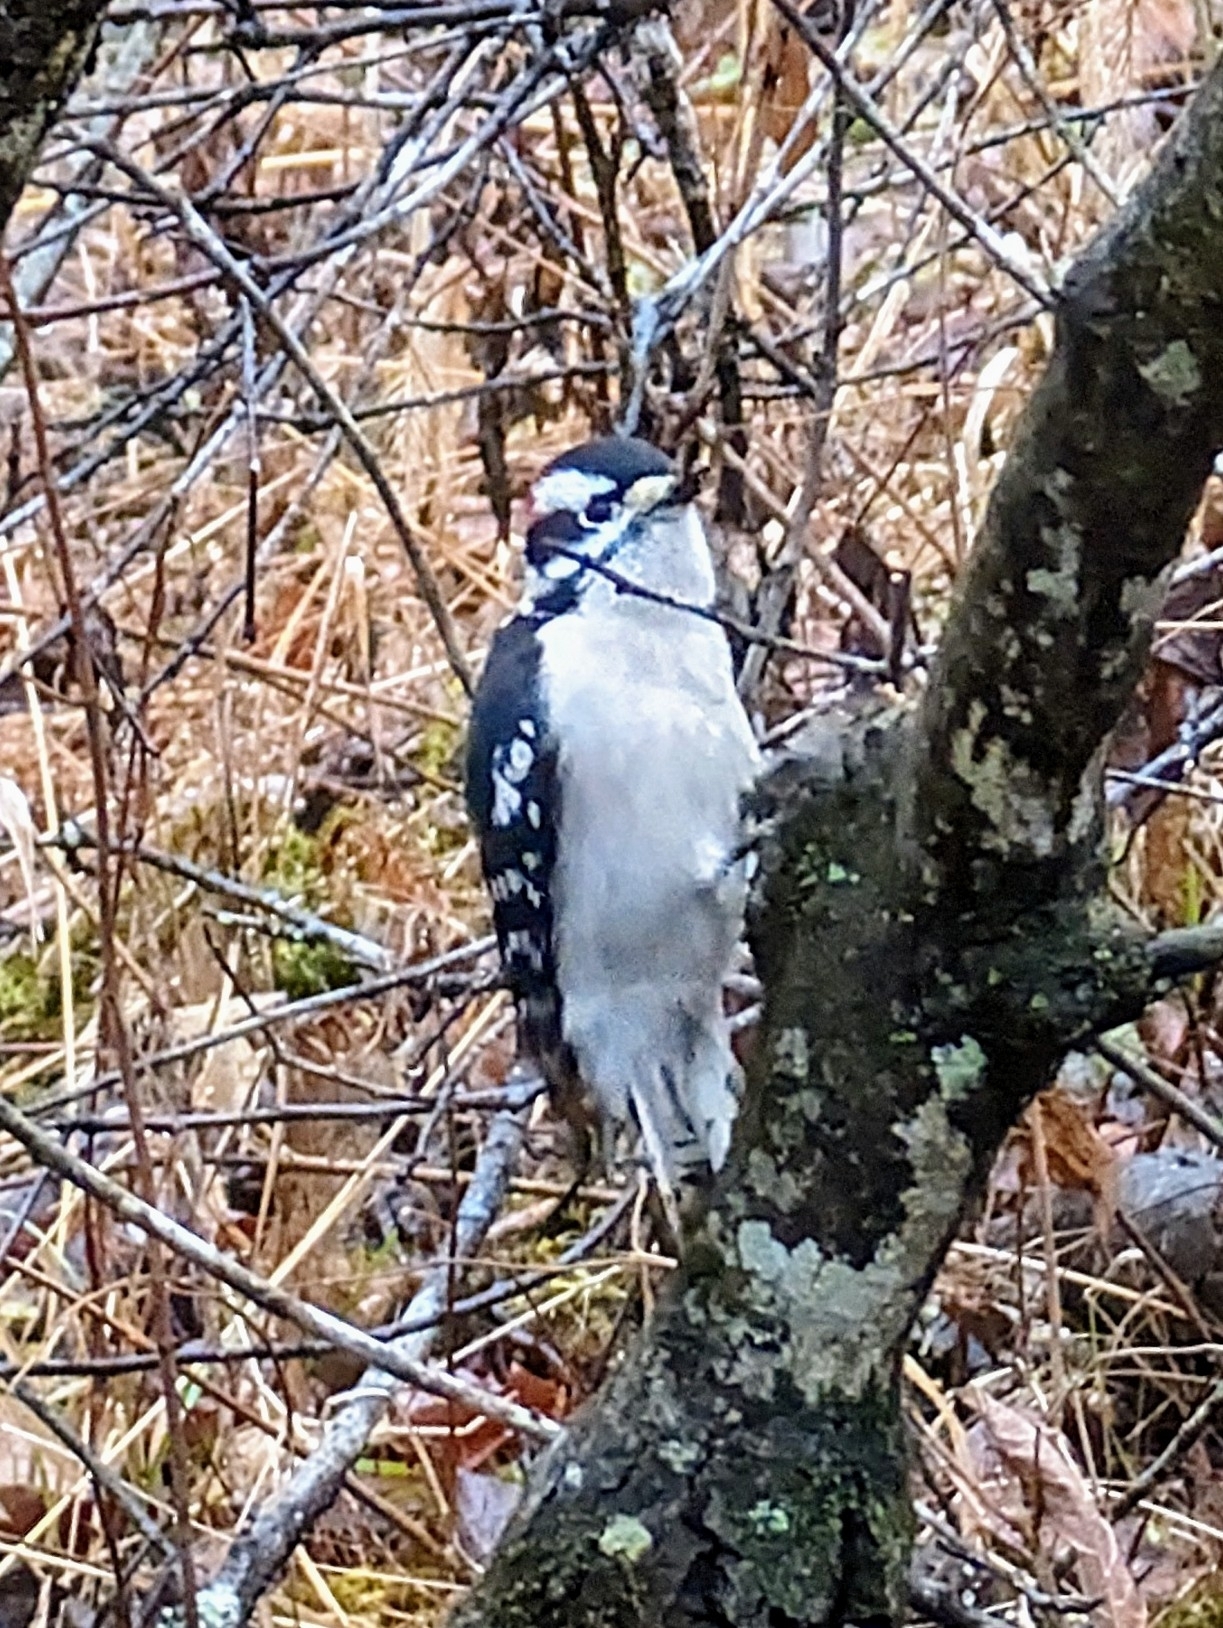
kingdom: Animalia
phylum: Chordata
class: Aves
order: Piciformes
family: Picidae
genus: Dryobates
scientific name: Dryobates pubescens
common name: Downy woodpecker
